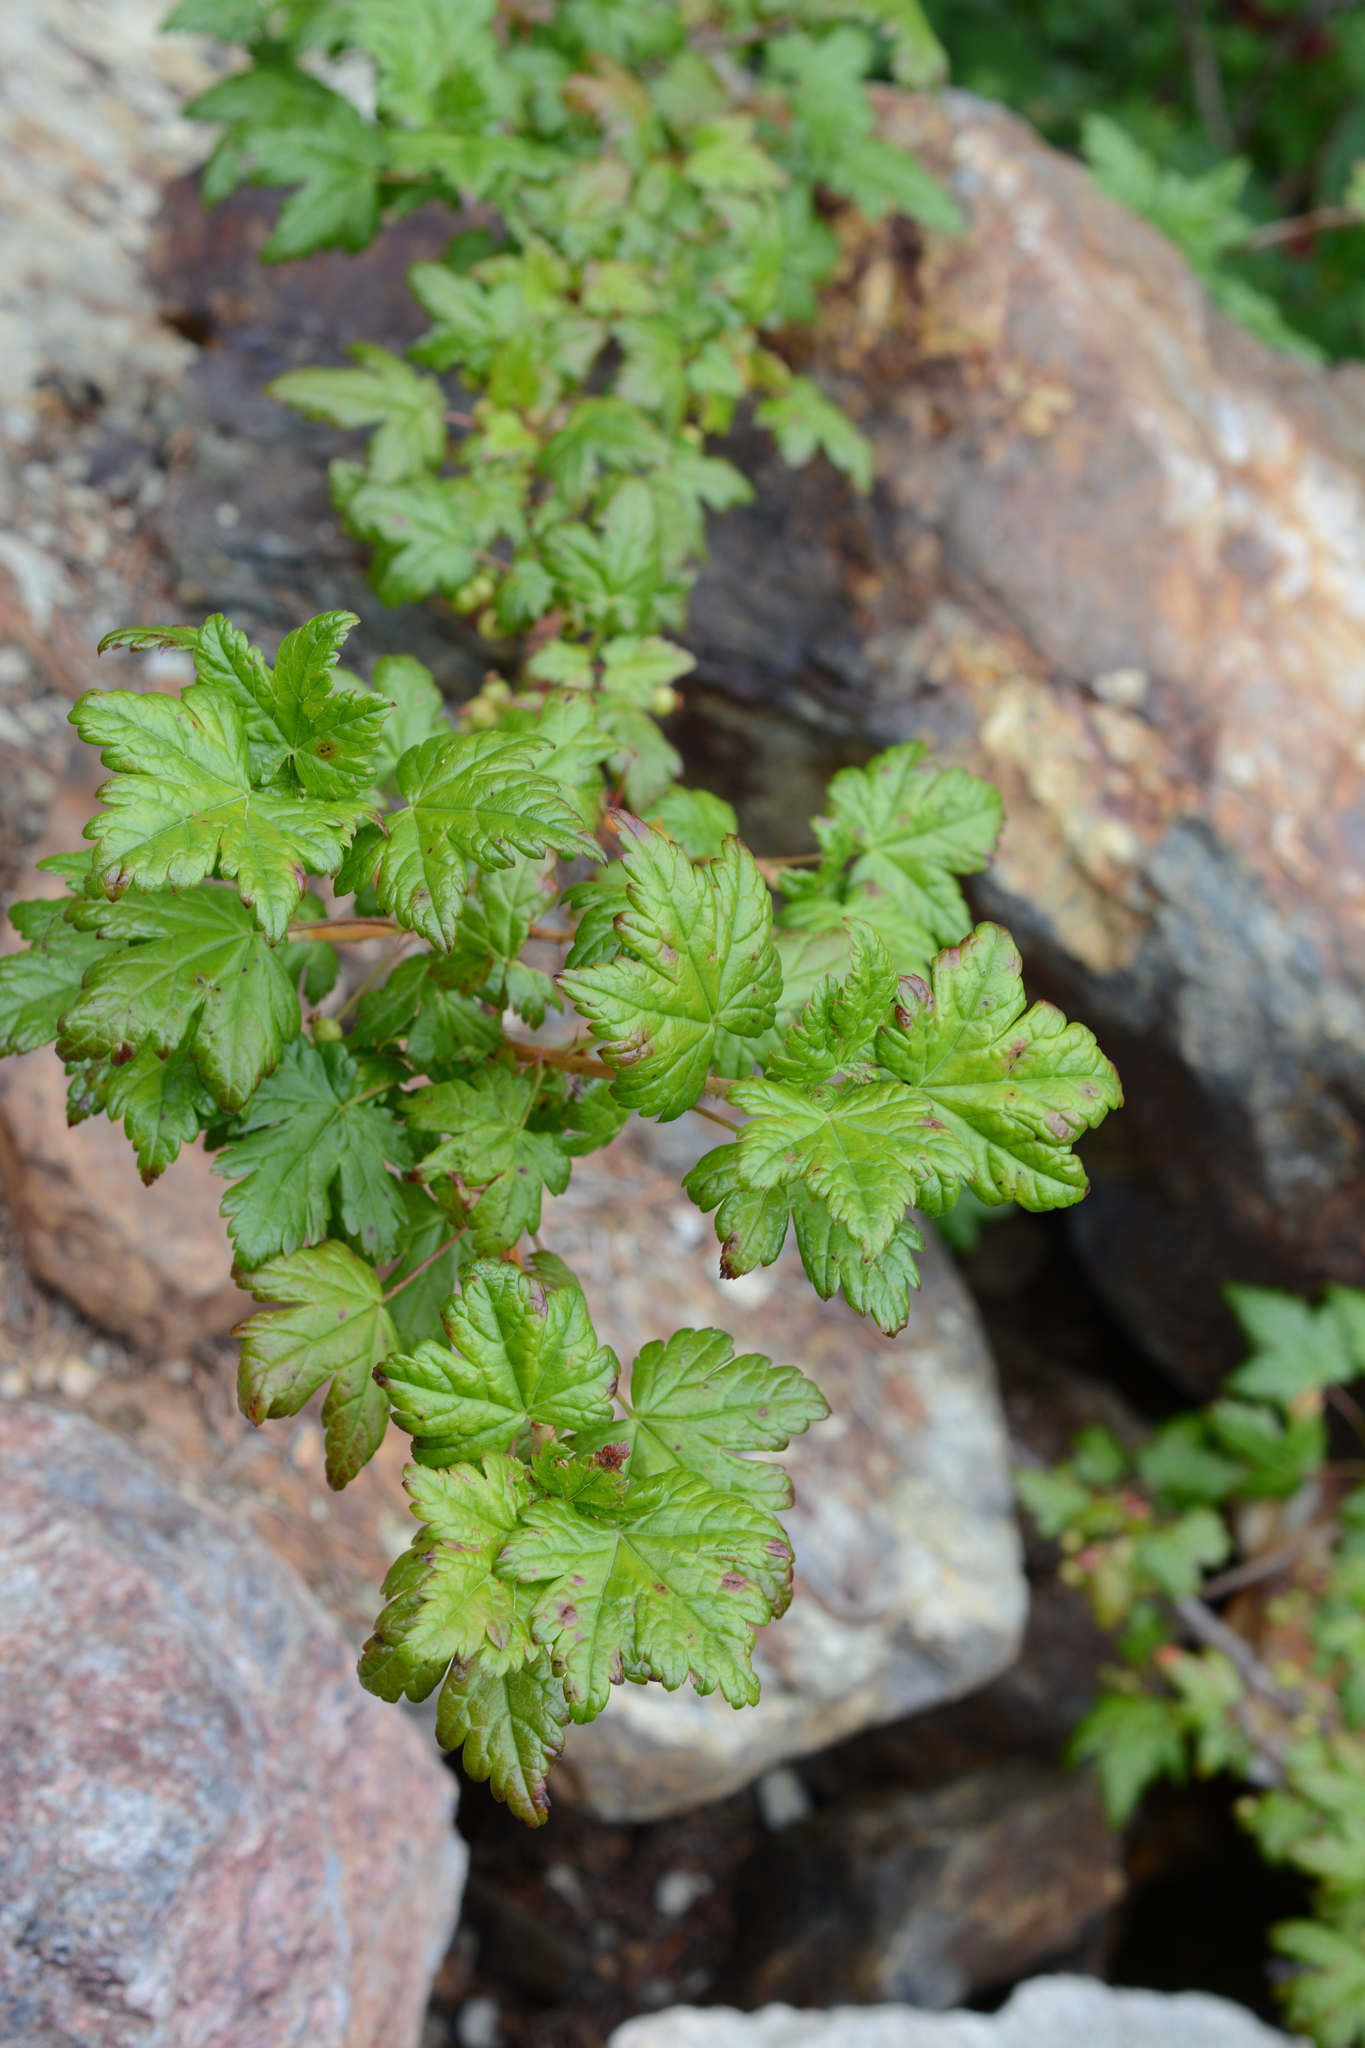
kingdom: Plantae
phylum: Tracheophyta
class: Magnoliopsida
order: Saxifragales
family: Grossulariaceae
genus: Ribes
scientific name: Ribes lacustre
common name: Black gooseberry
